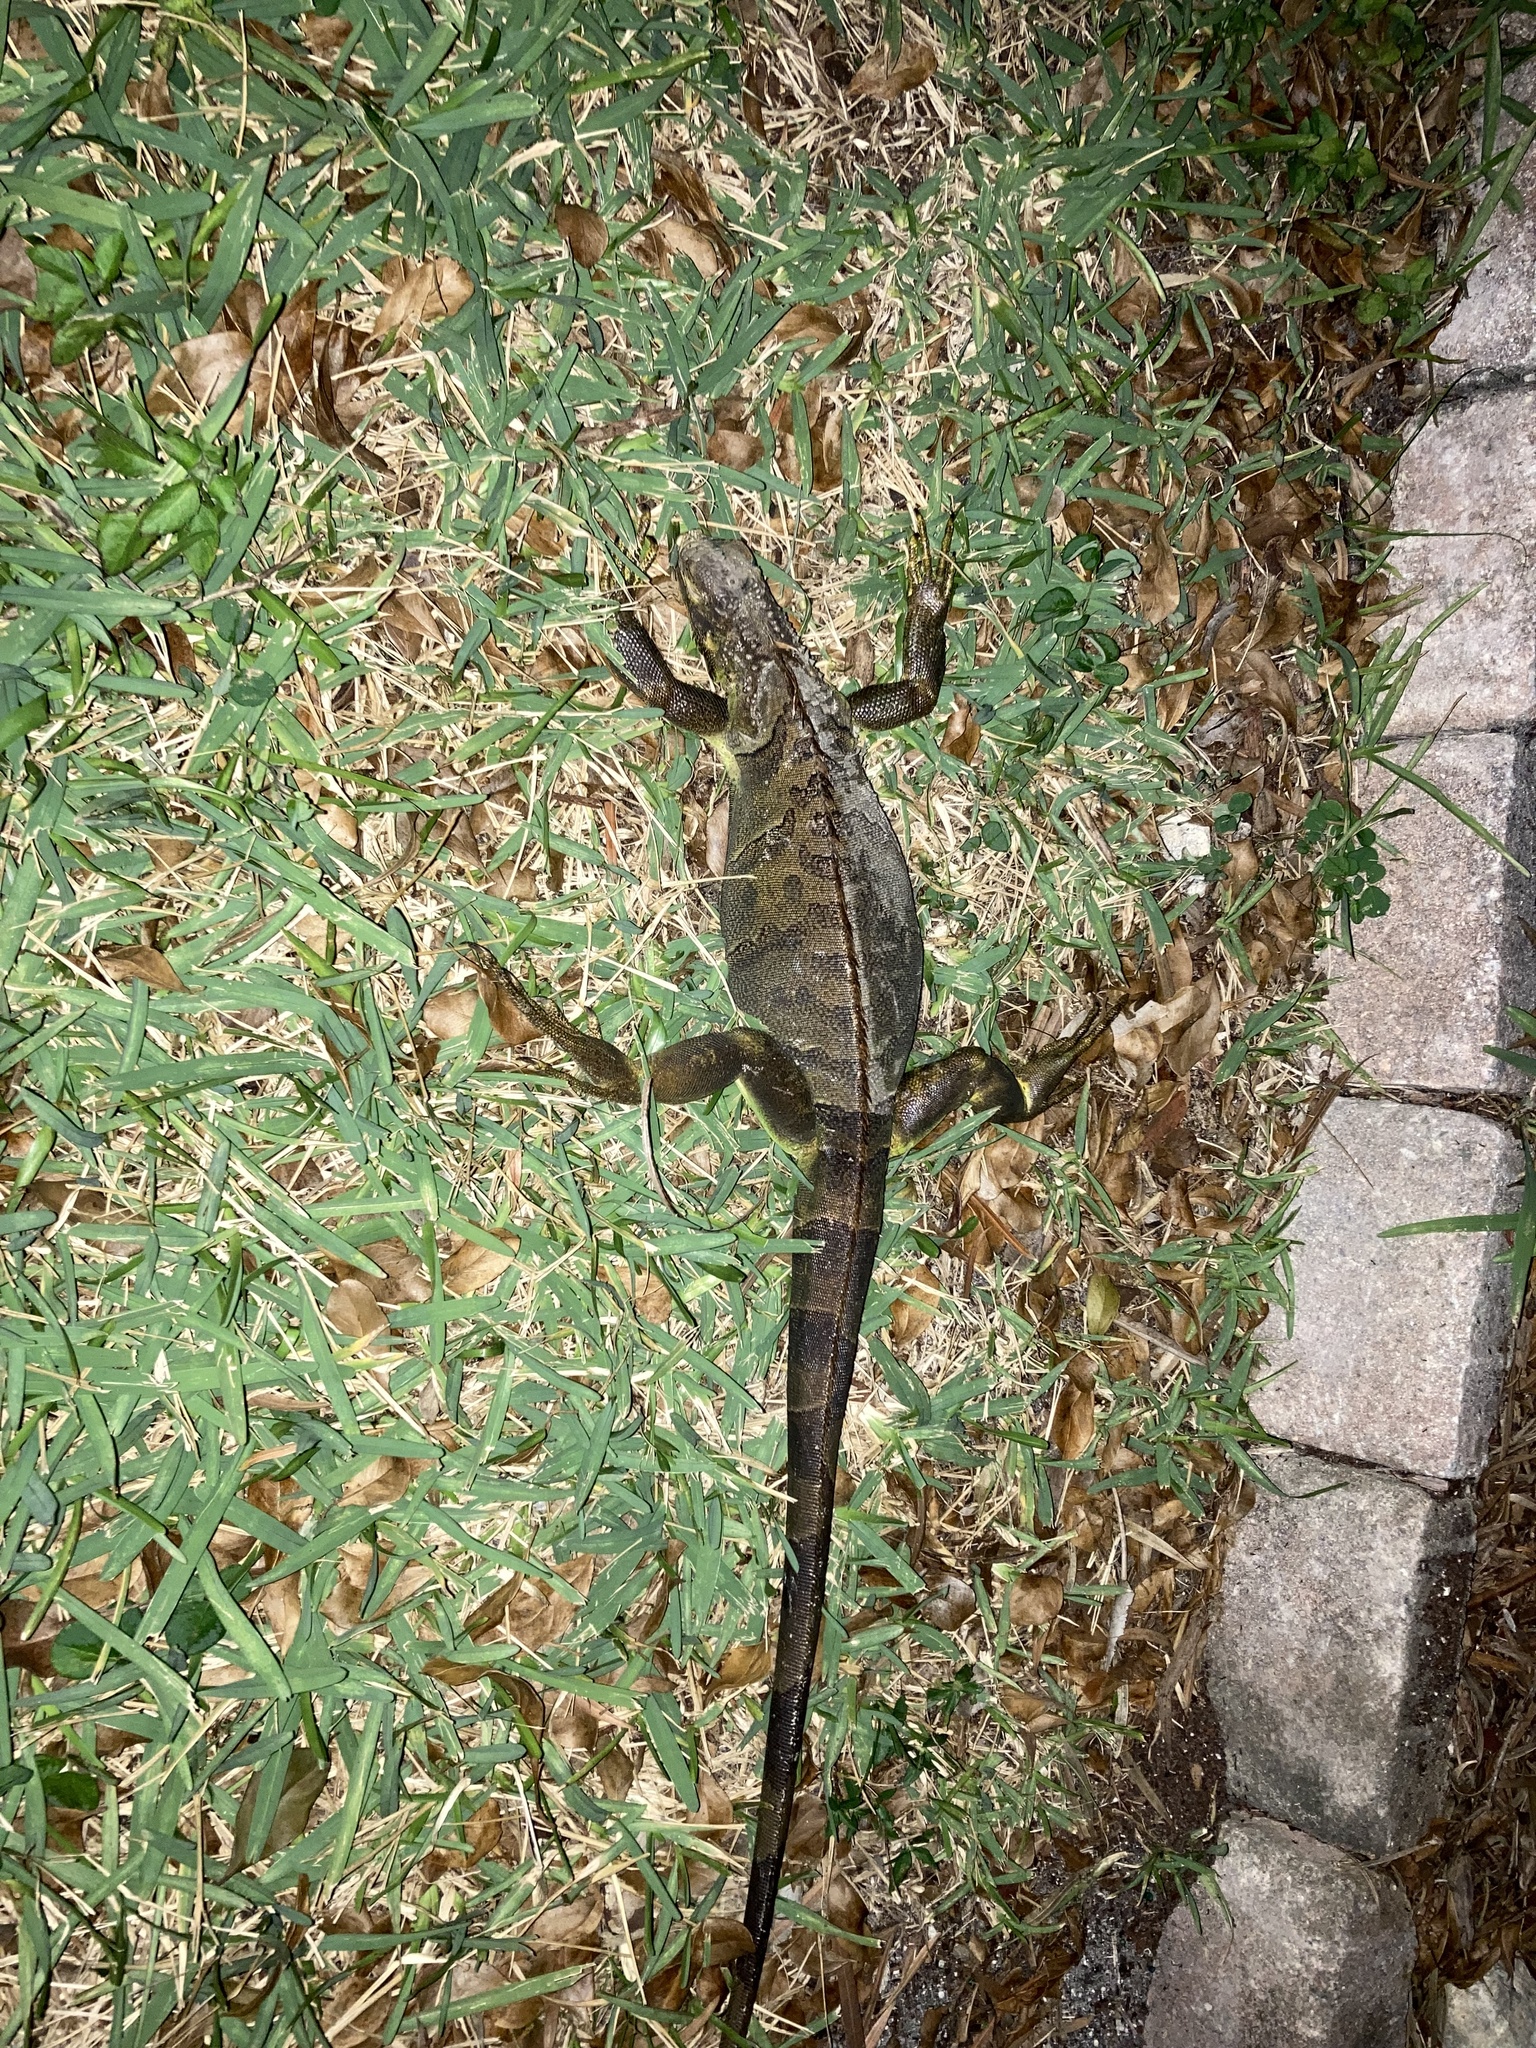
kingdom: Animalia
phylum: Chordata
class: Squamata
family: Iguanidae
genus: Iguana
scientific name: Iguana iguana
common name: Green iguana
